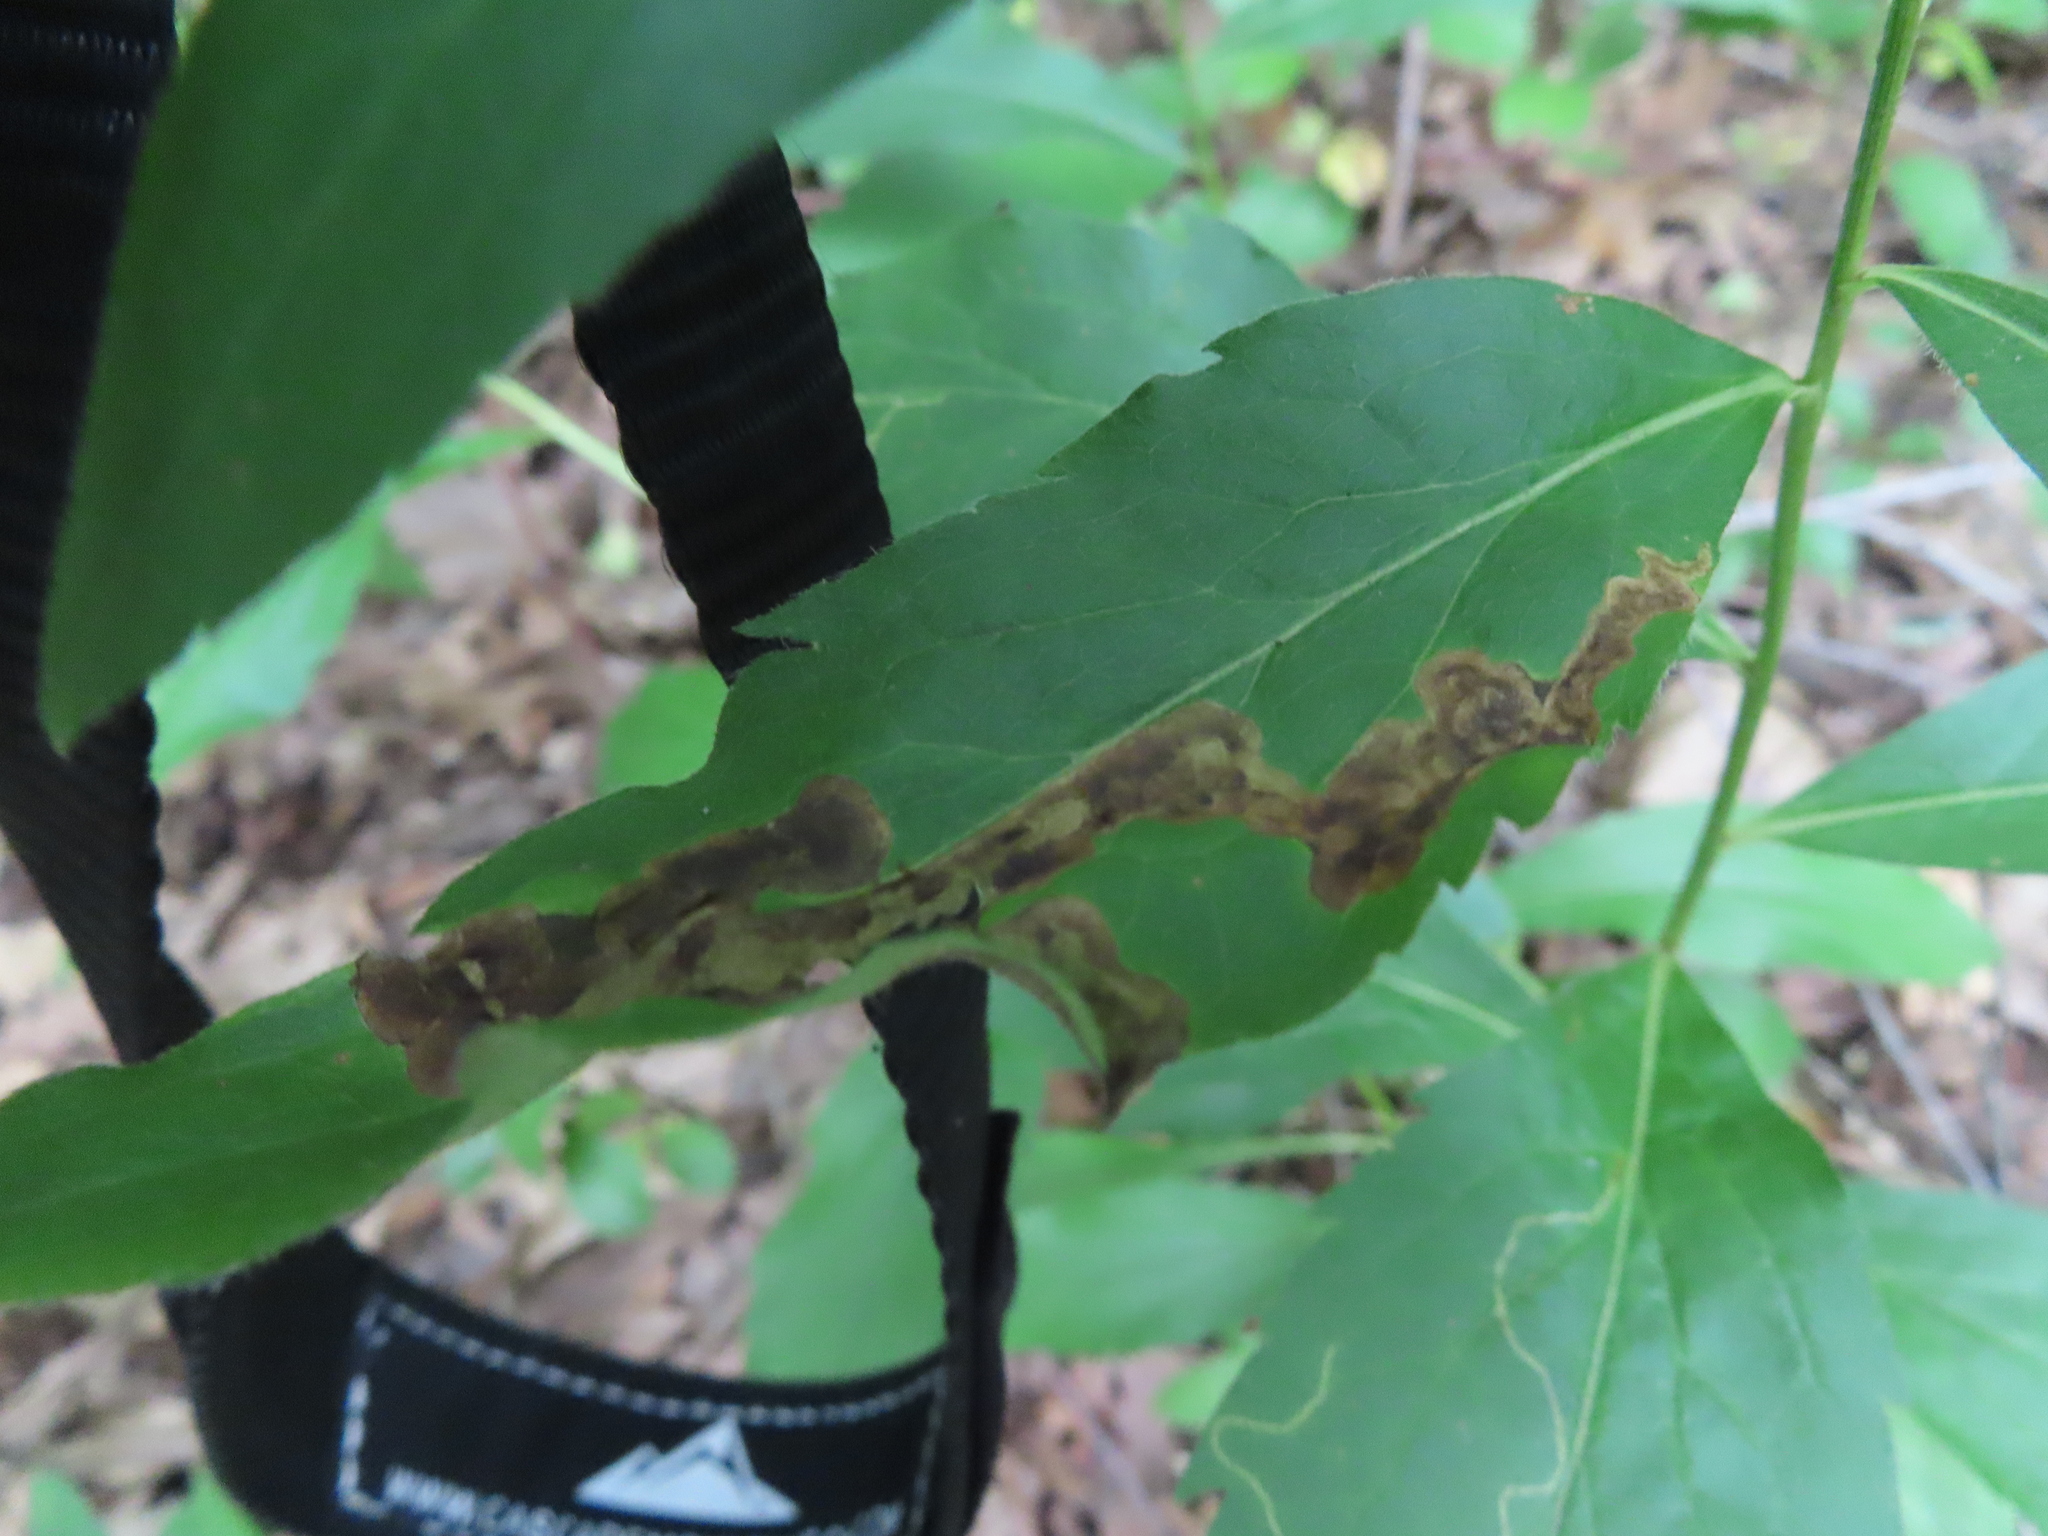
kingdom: Animalia
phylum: Arthropoda
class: Insecta
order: Diptera
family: Agromyzidae
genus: Nemorimyza
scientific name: Nemorimyza posticata
